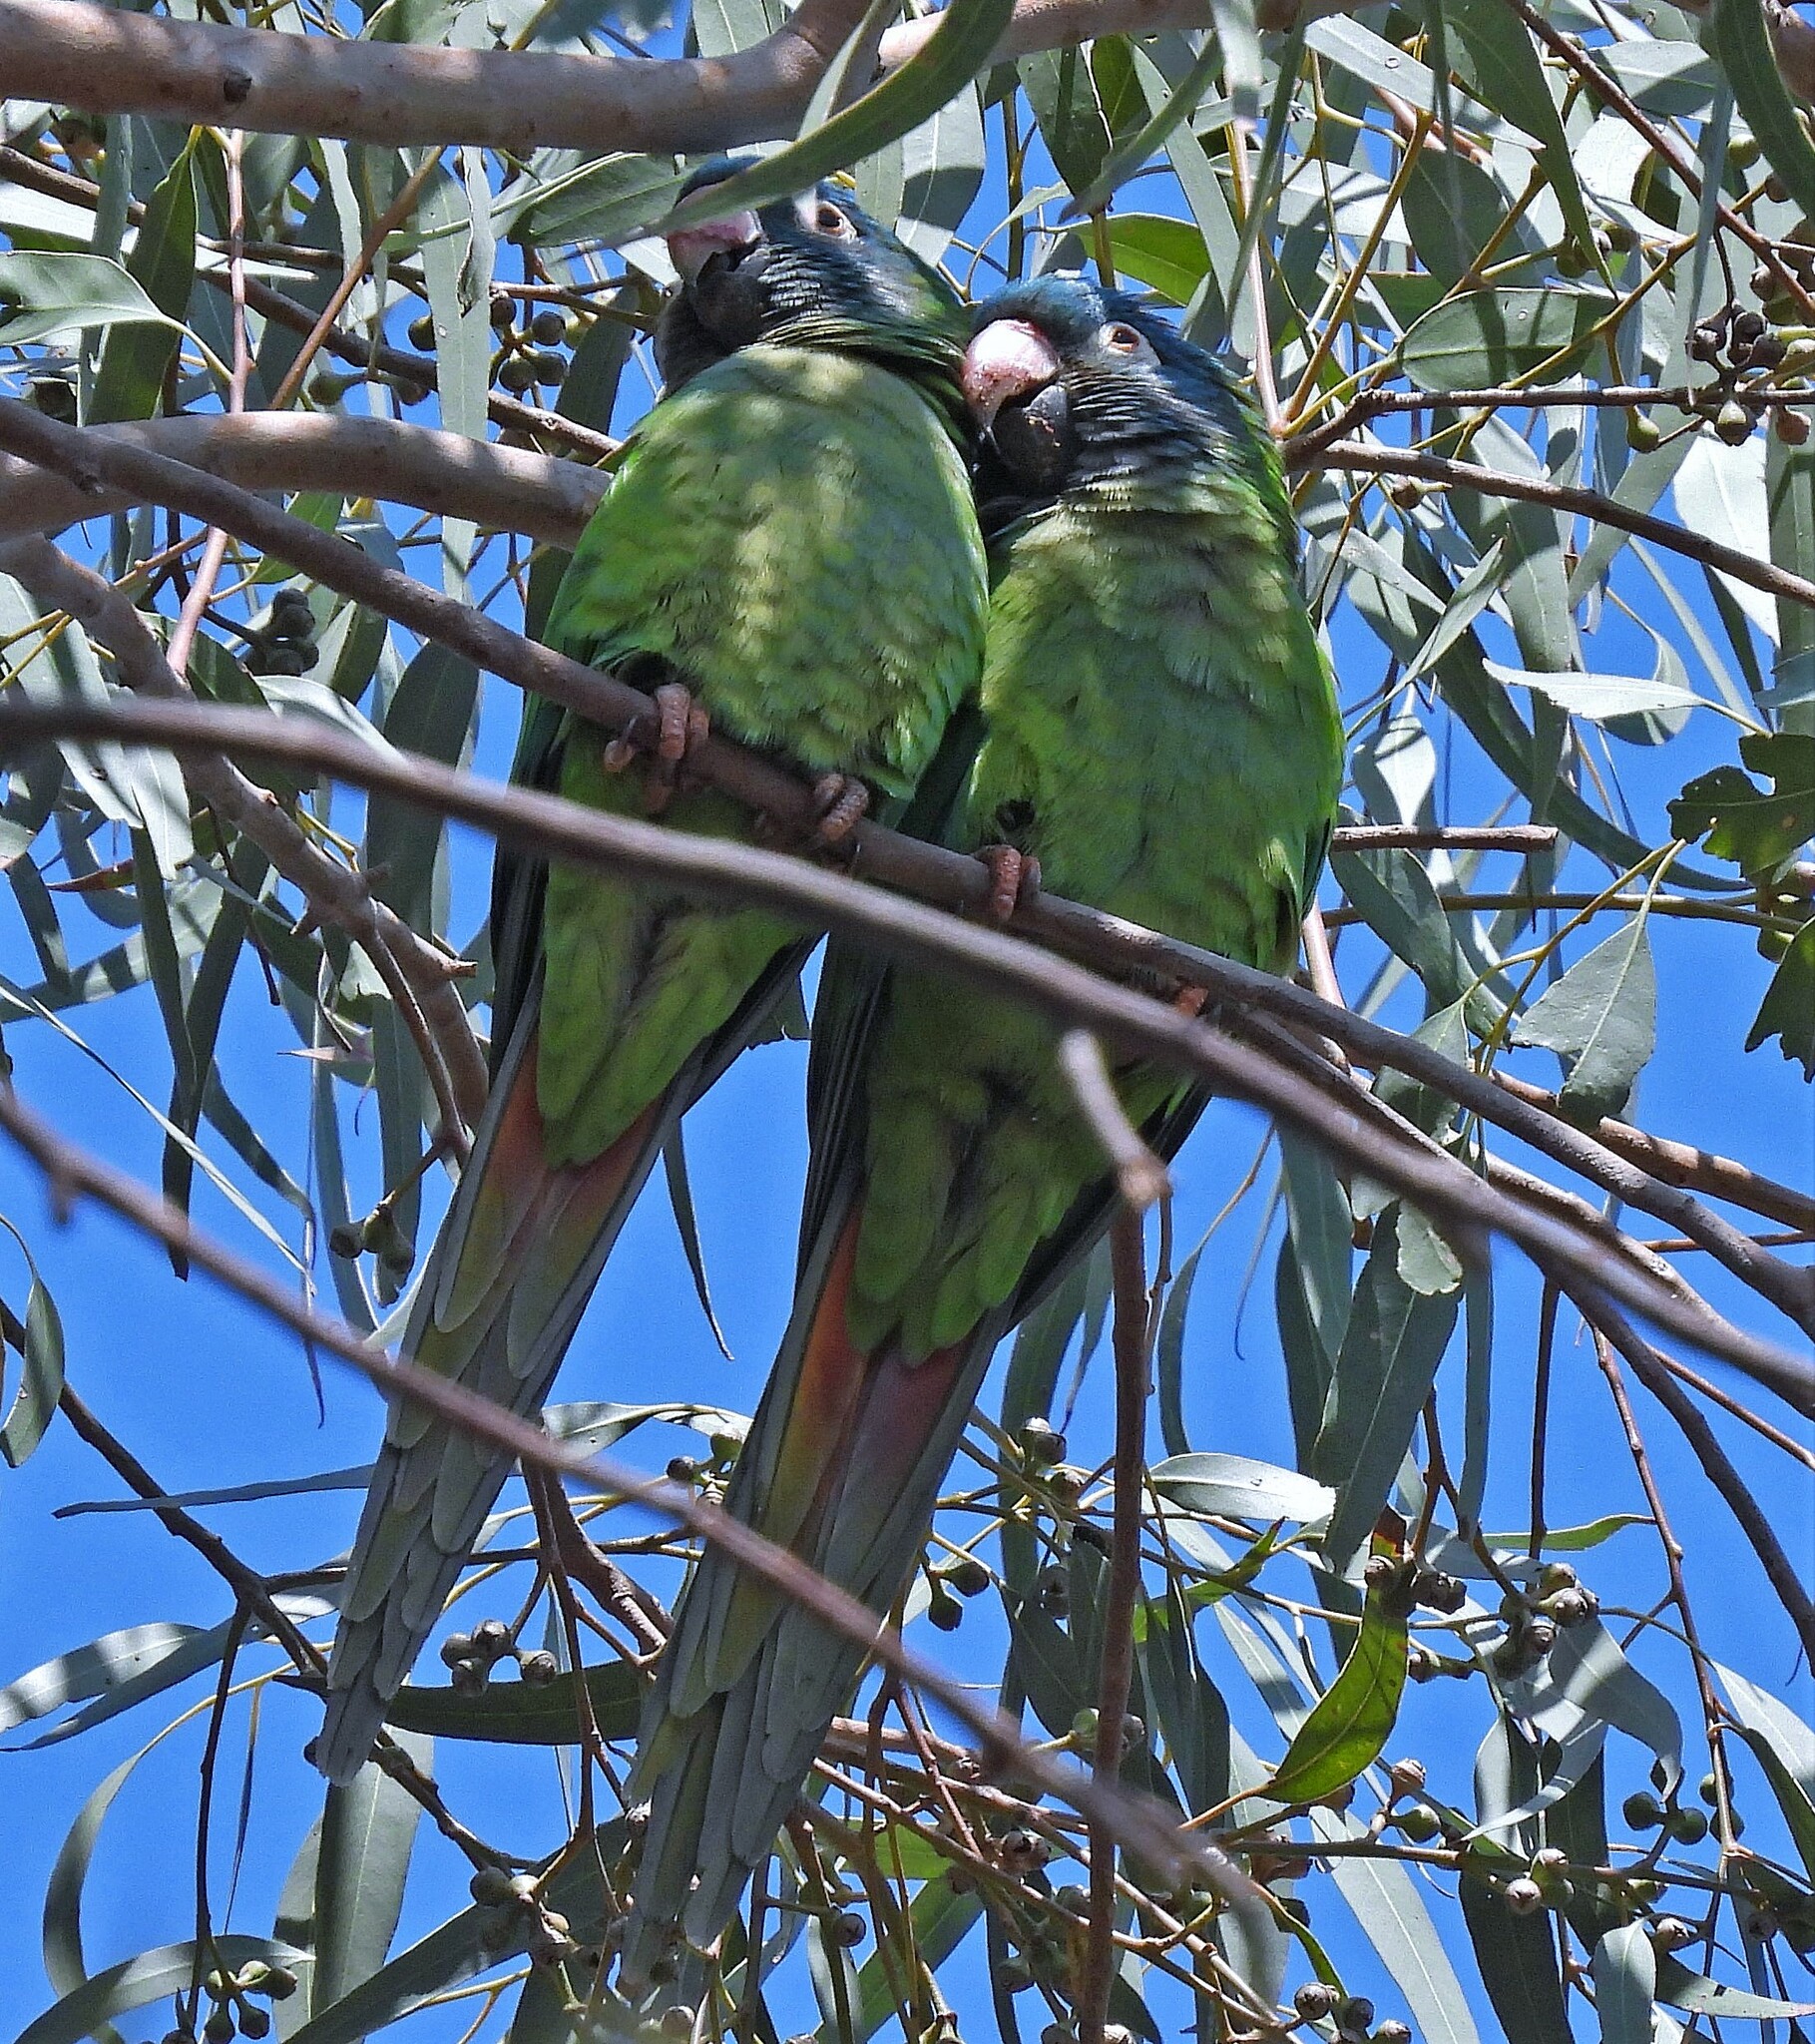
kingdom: Animalia
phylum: Chordata
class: Aves
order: Psittaciformes
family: Psittacidae
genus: Aratinga
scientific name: Aratinga acuticaudata
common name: Blue-crowned parakeet
